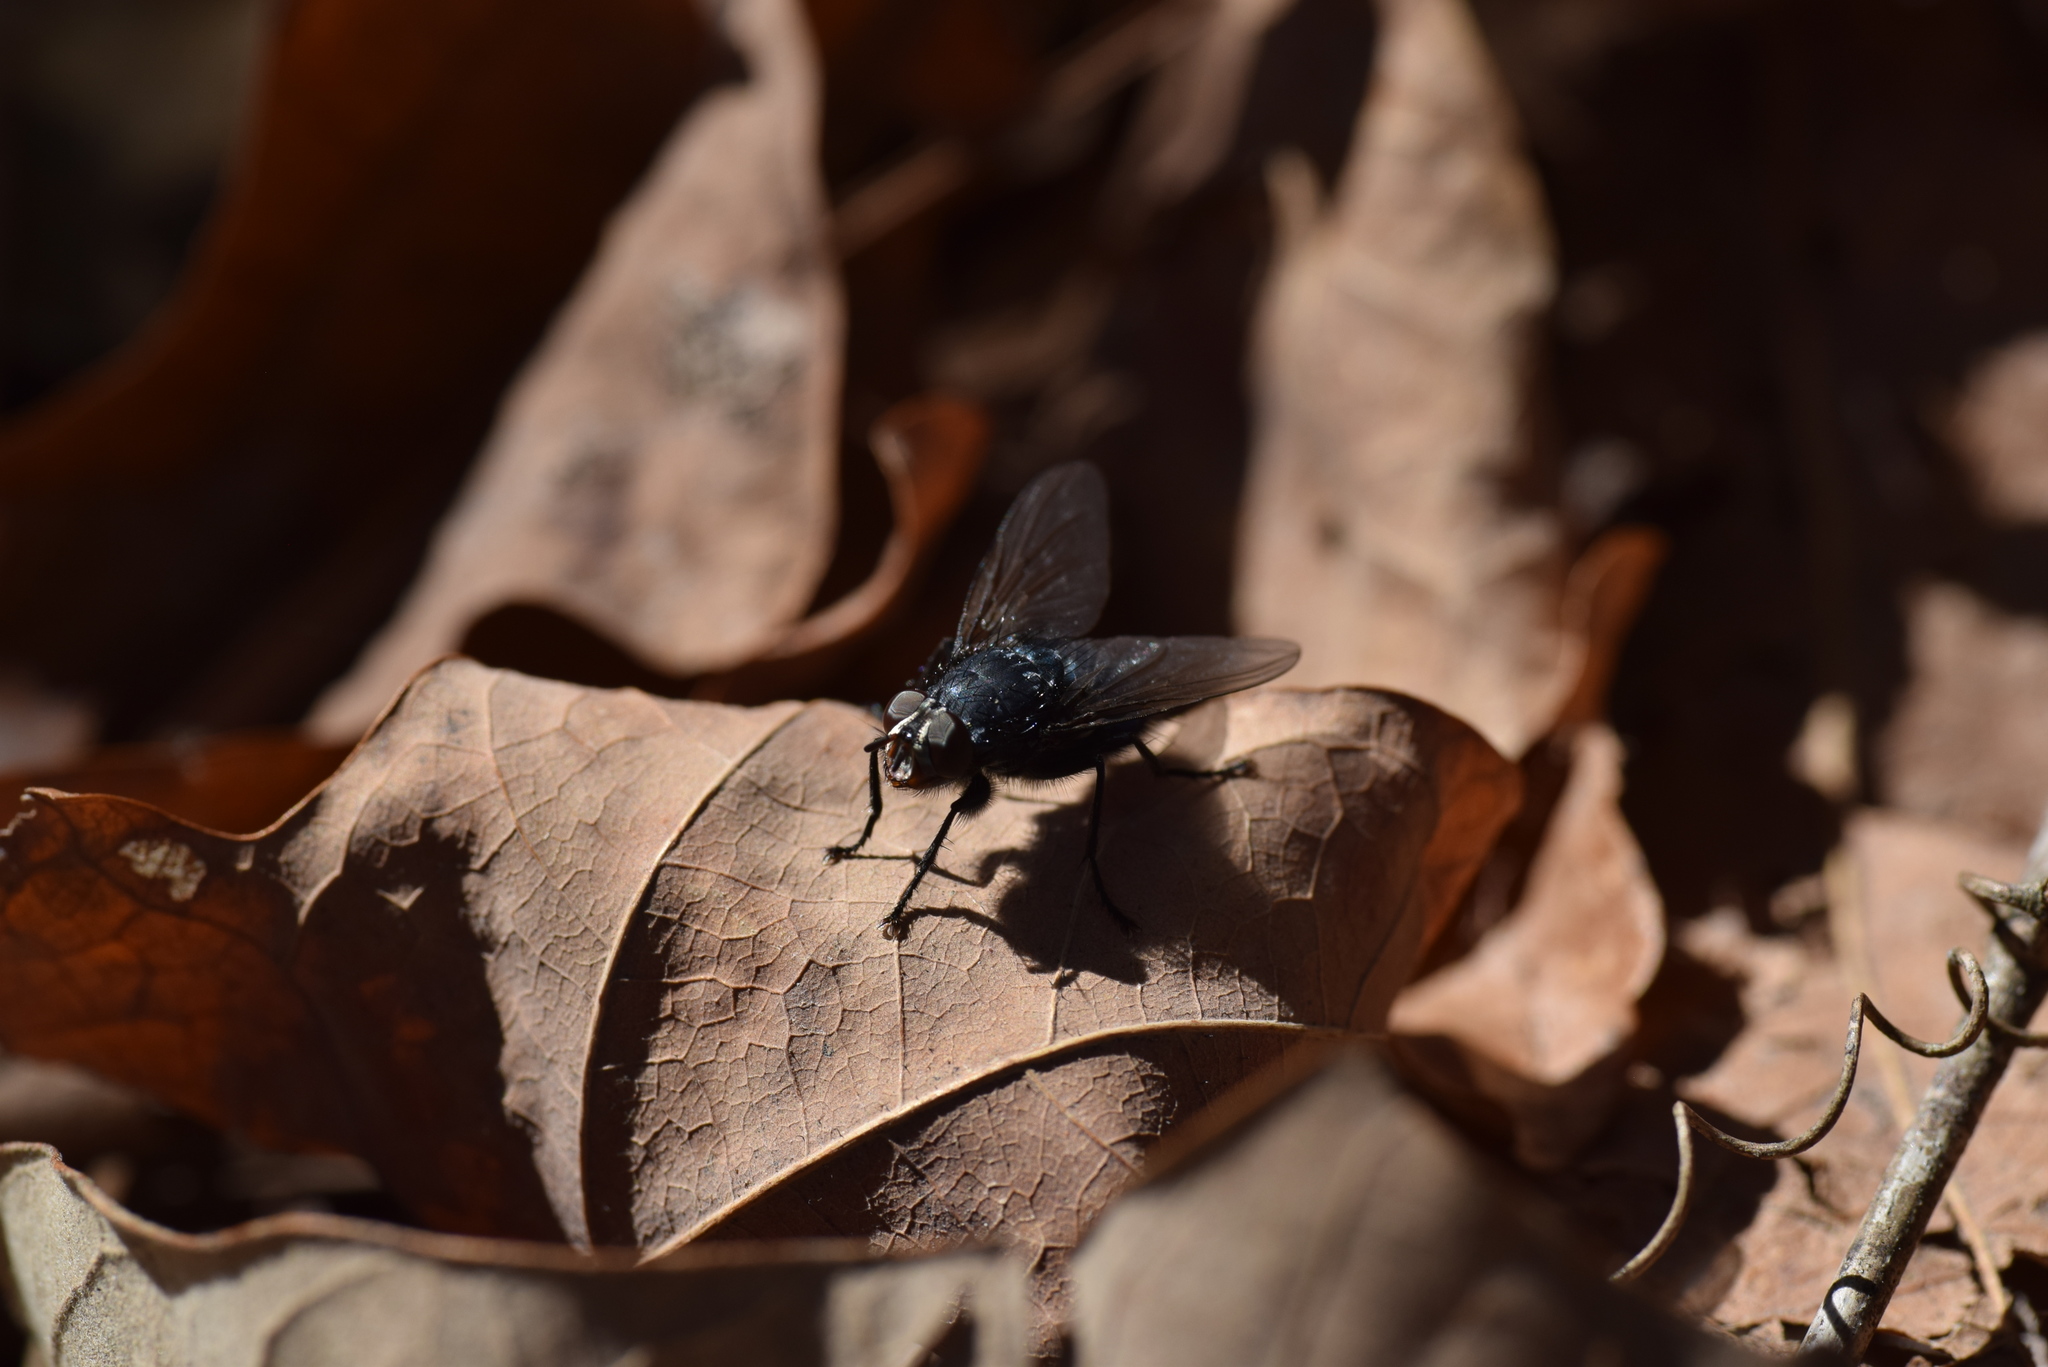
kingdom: Animalia
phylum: Arthropoda
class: Insecta
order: Diptera
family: Calliphoridae
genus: Cynomya
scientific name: Cynomya cadaverina
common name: Shiny blue bottle fly
